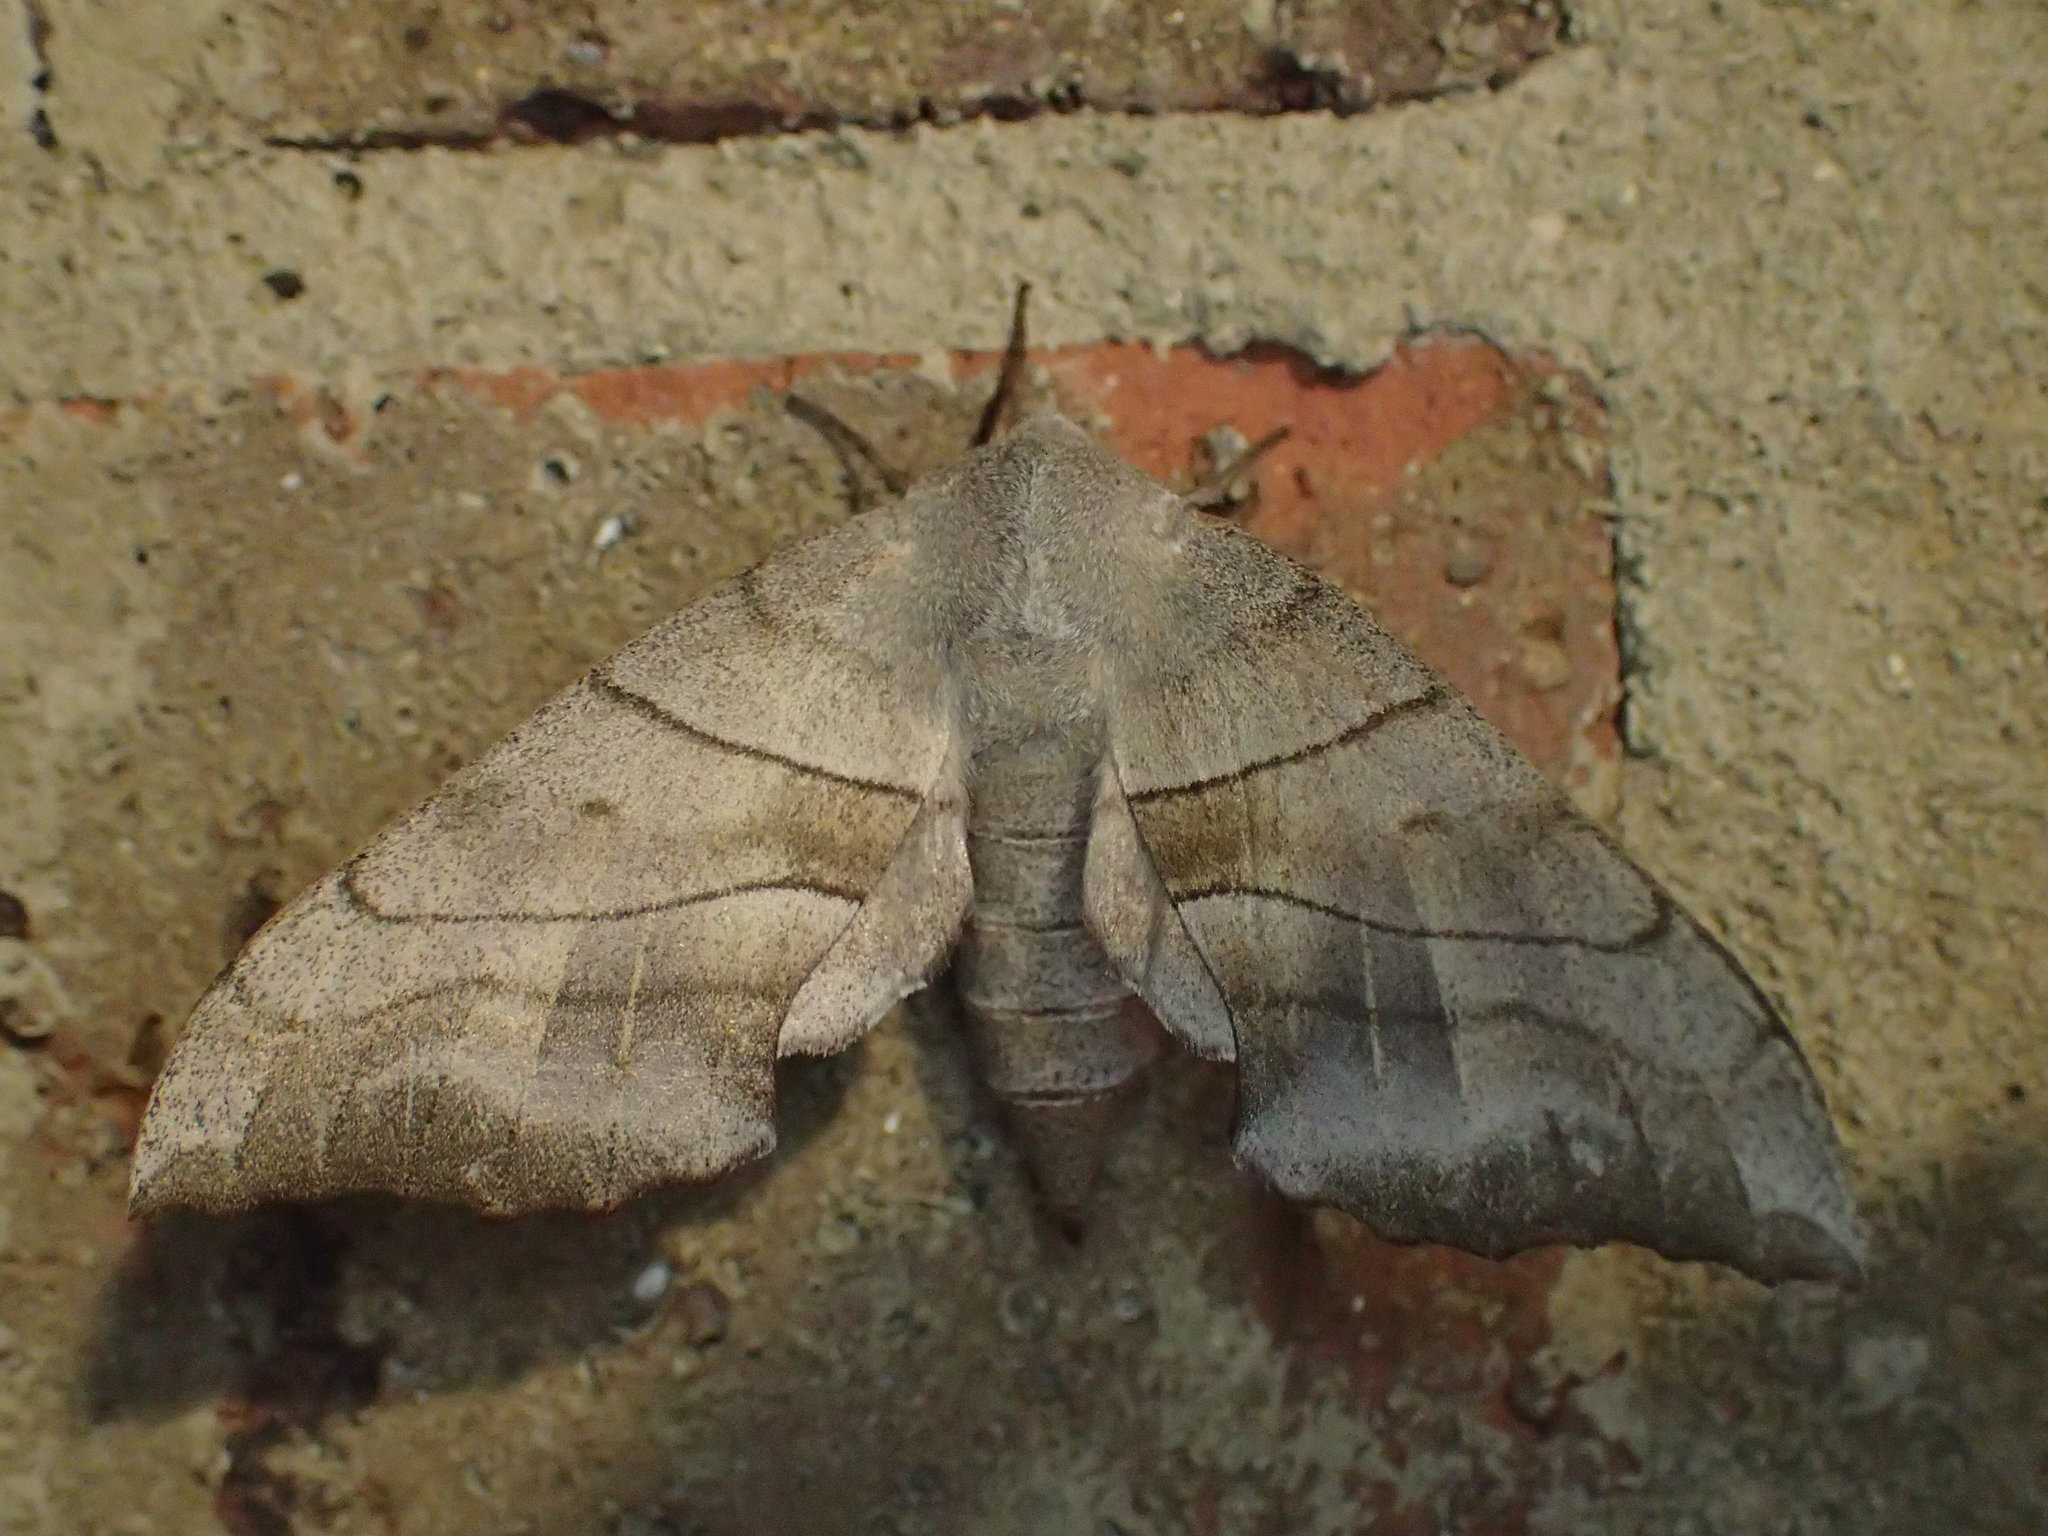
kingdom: Animalia
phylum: Arthropoda
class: Insecta
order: Lepidoptera
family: Sphingidae
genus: Amorpha
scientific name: Amorpha juglandis
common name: Walnut sphinx
